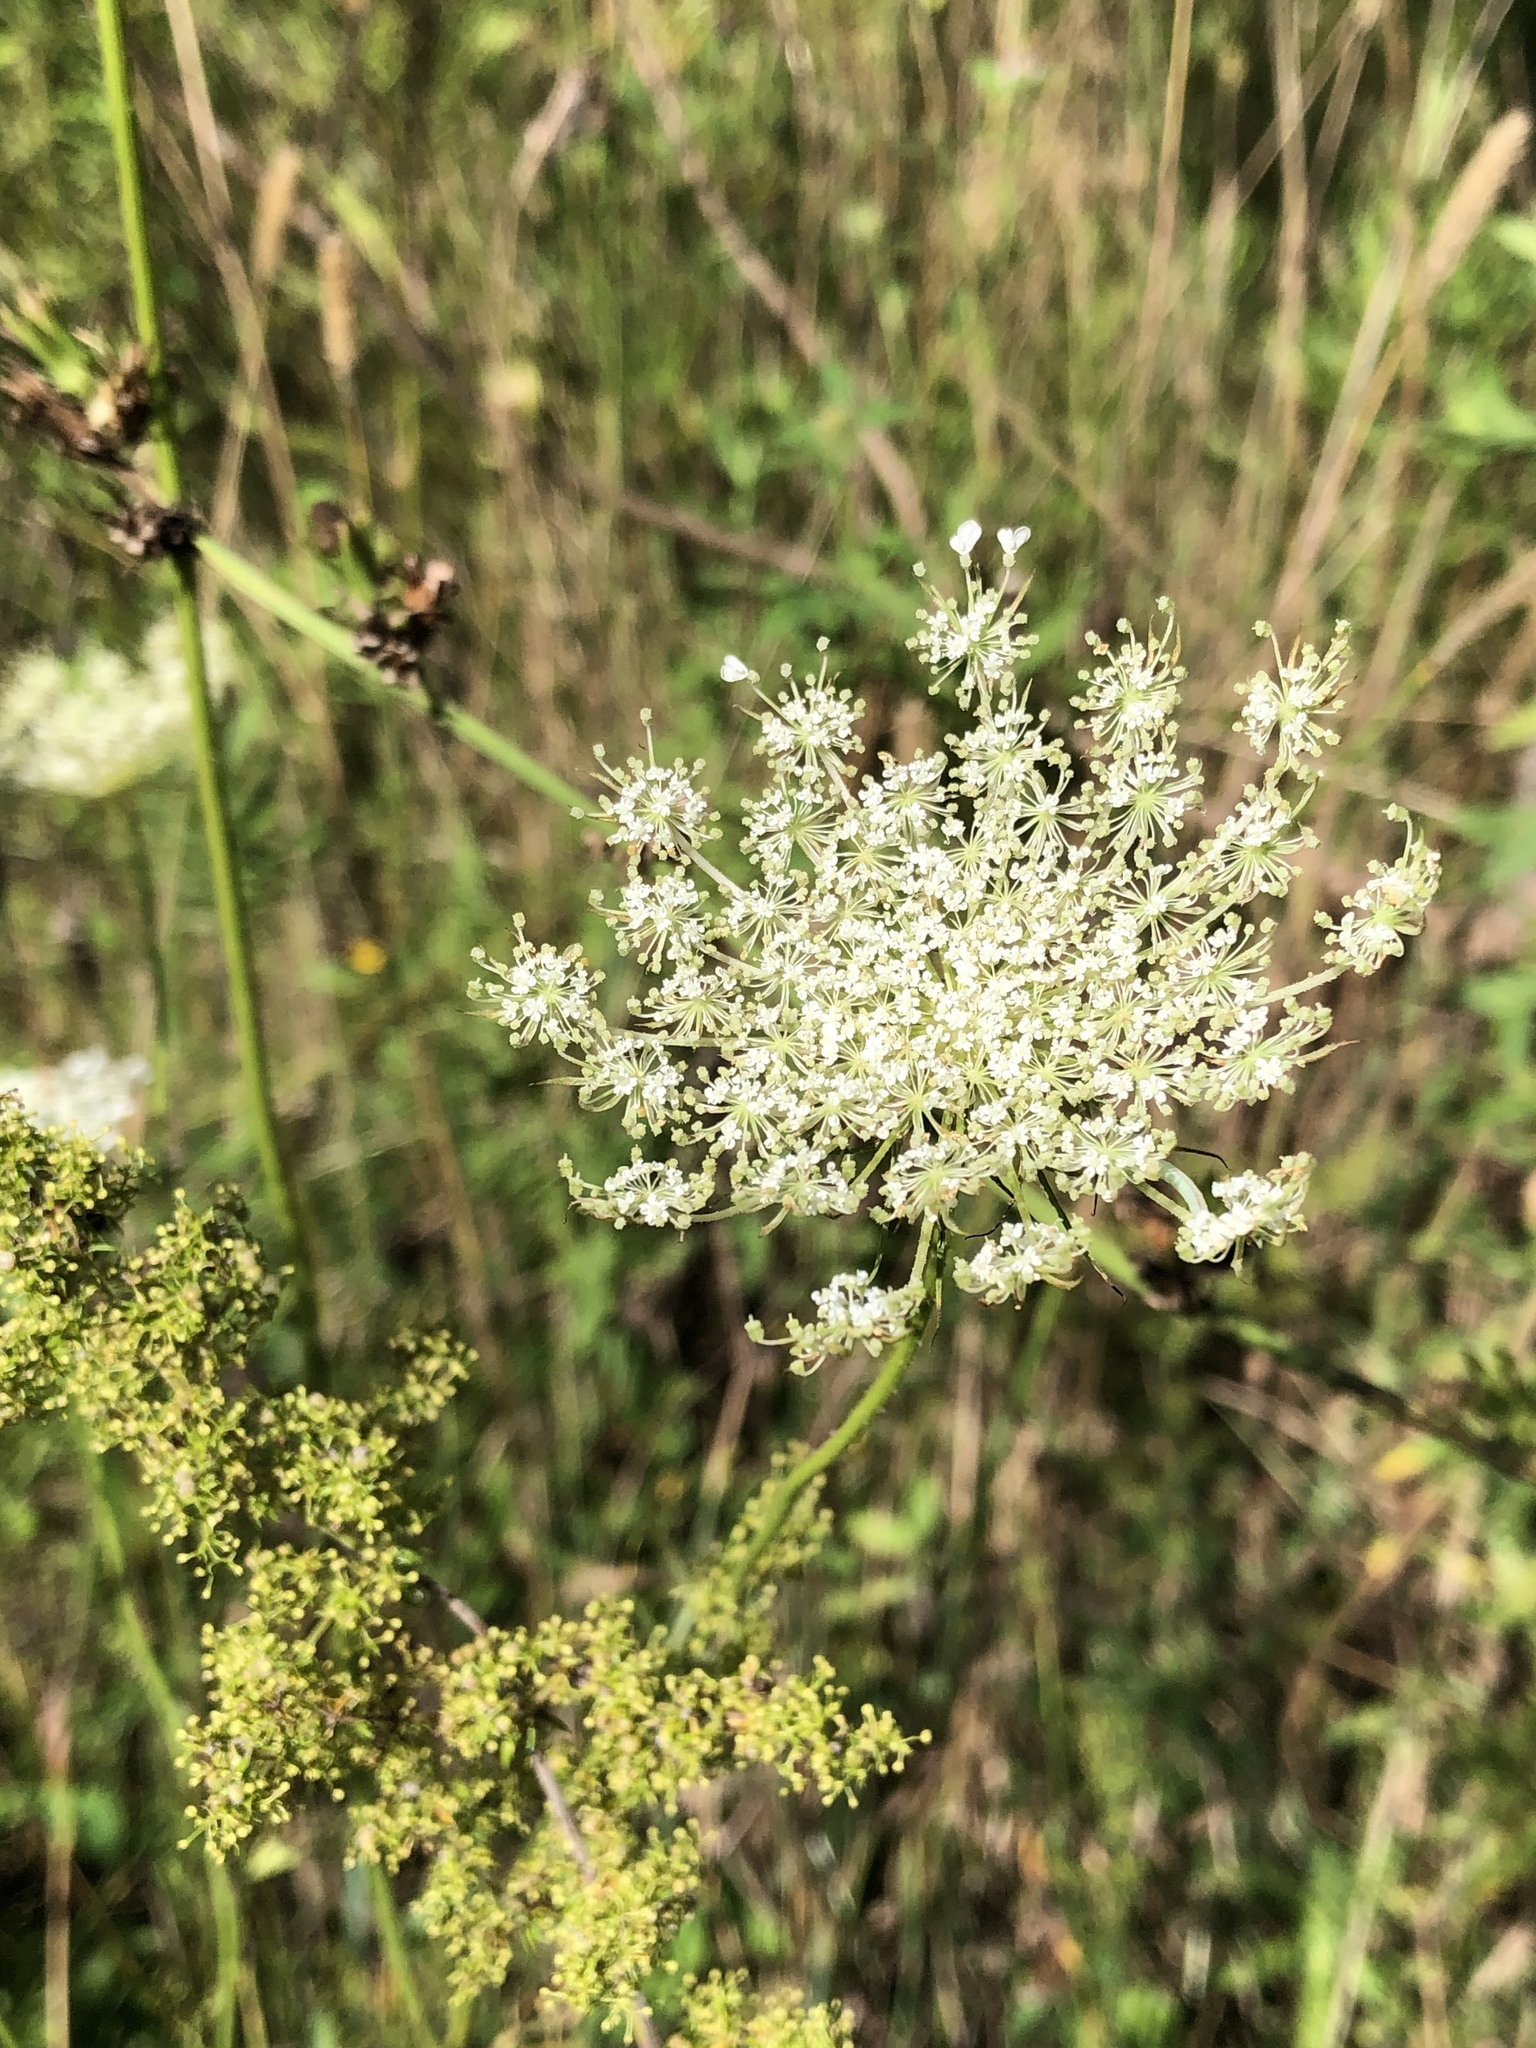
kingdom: Plantae
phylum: Tracheophyta
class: Magnoliopsida
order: Apiales
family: Apiaceae
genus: Daucus
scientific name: Daucus carota
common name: Wild carrot
